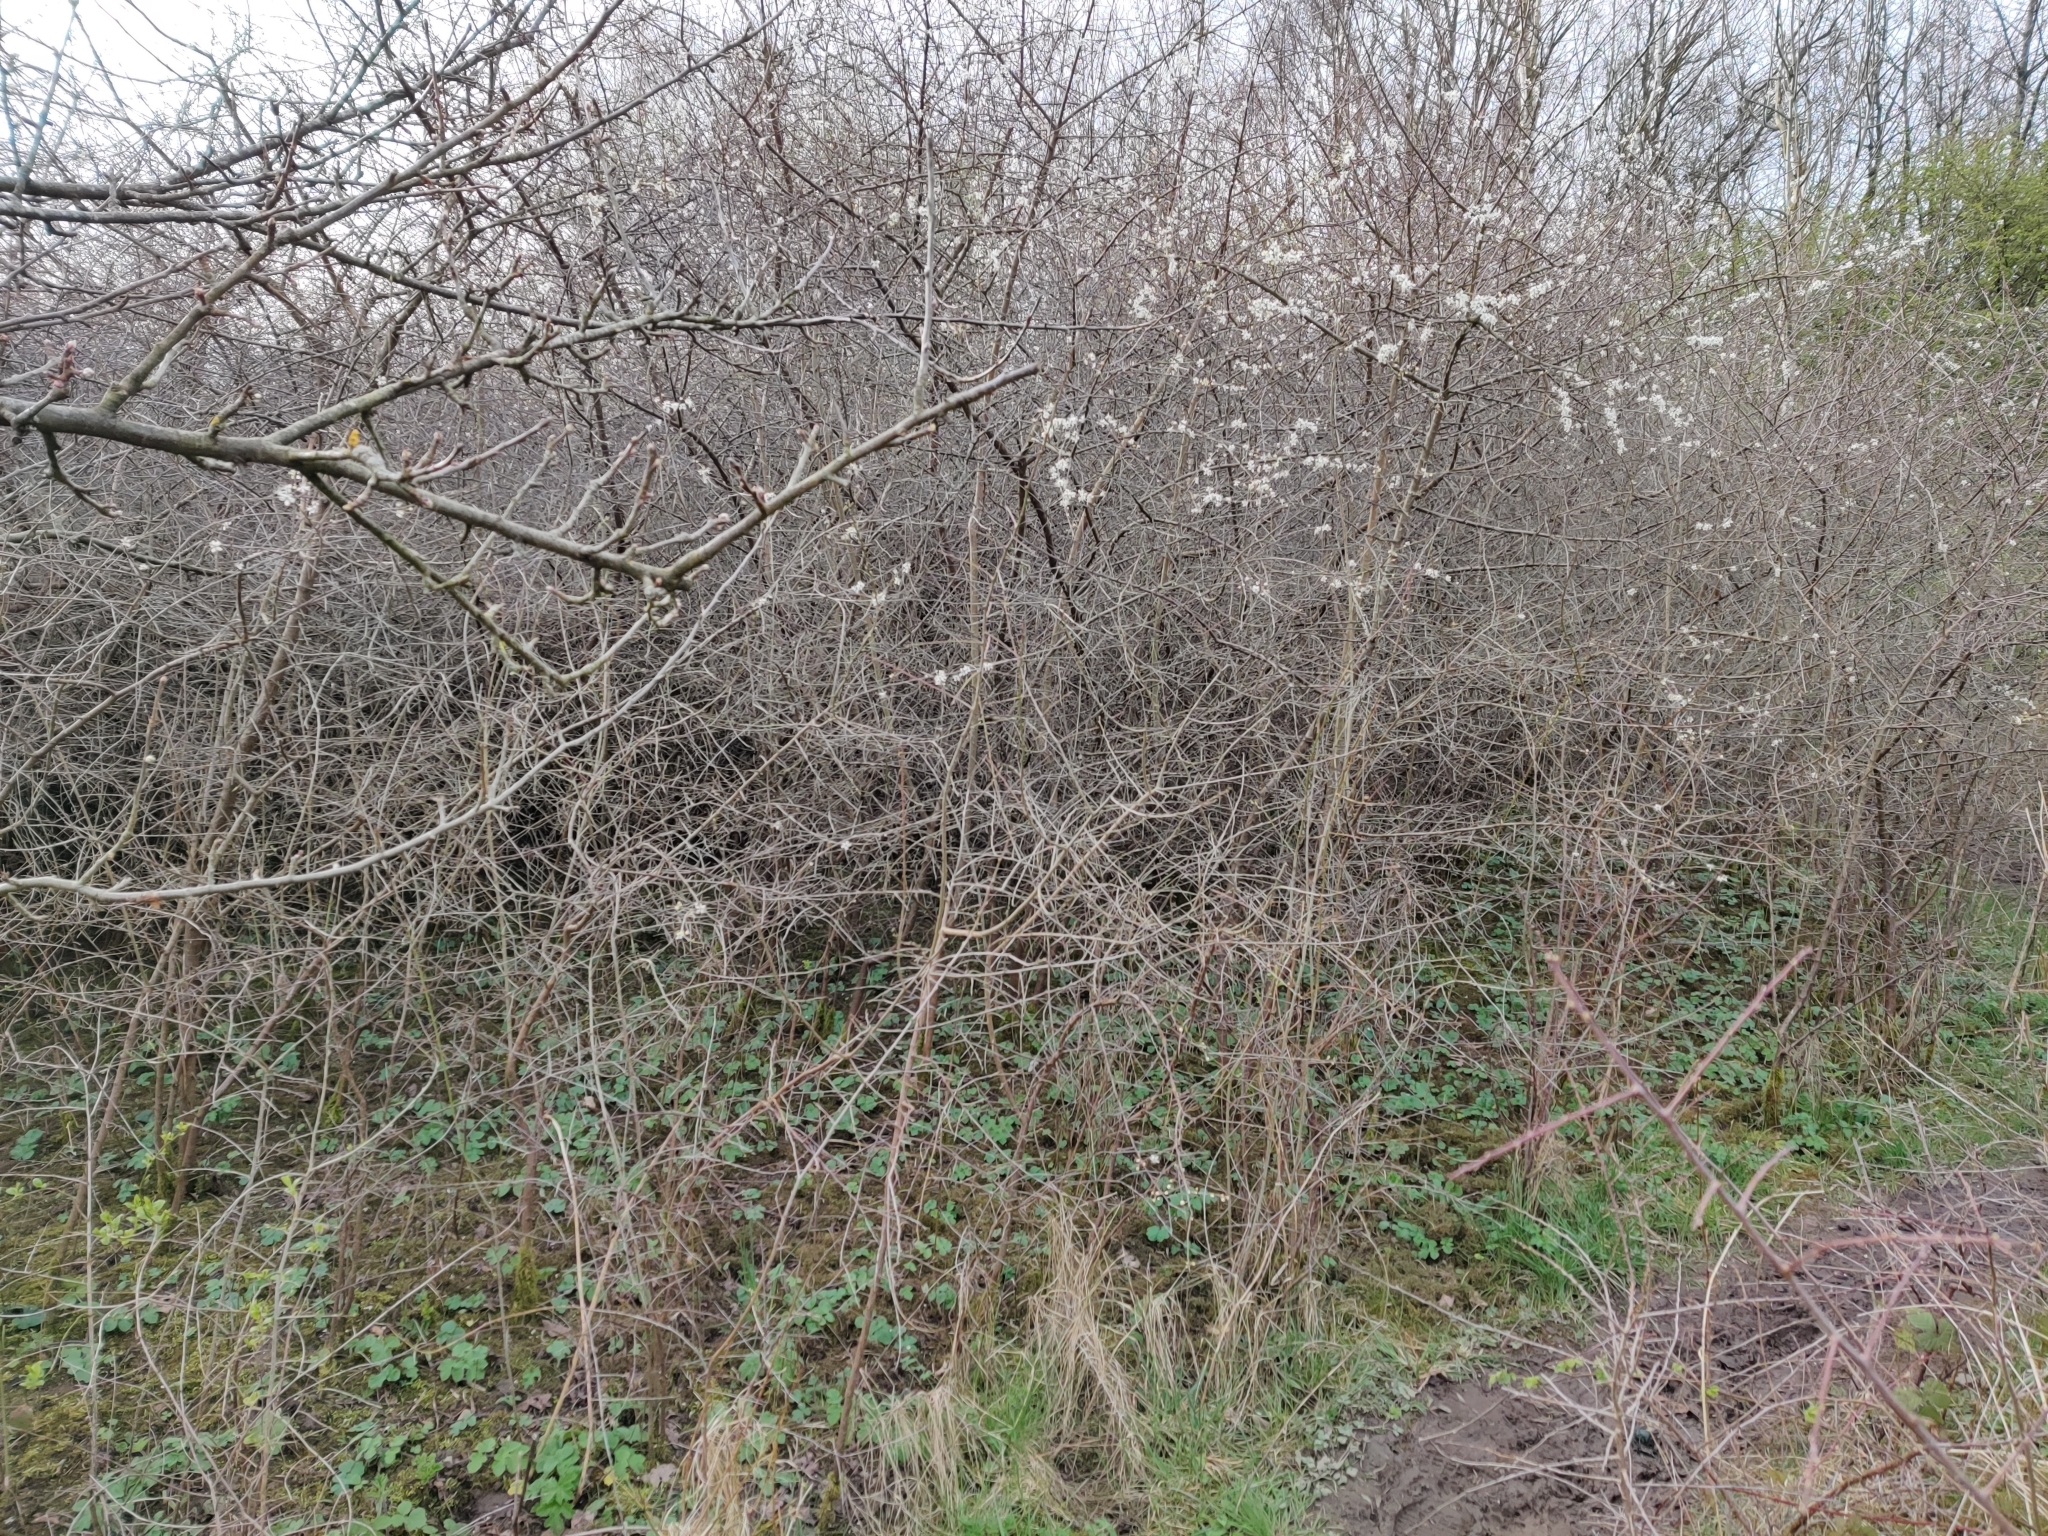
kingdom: Plantae
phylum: Tracheophyta
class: Magnoliopsida
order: Rosales
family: Rosaceae
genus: Prunus
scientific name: Prunus spinosa
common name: Blackthorn
